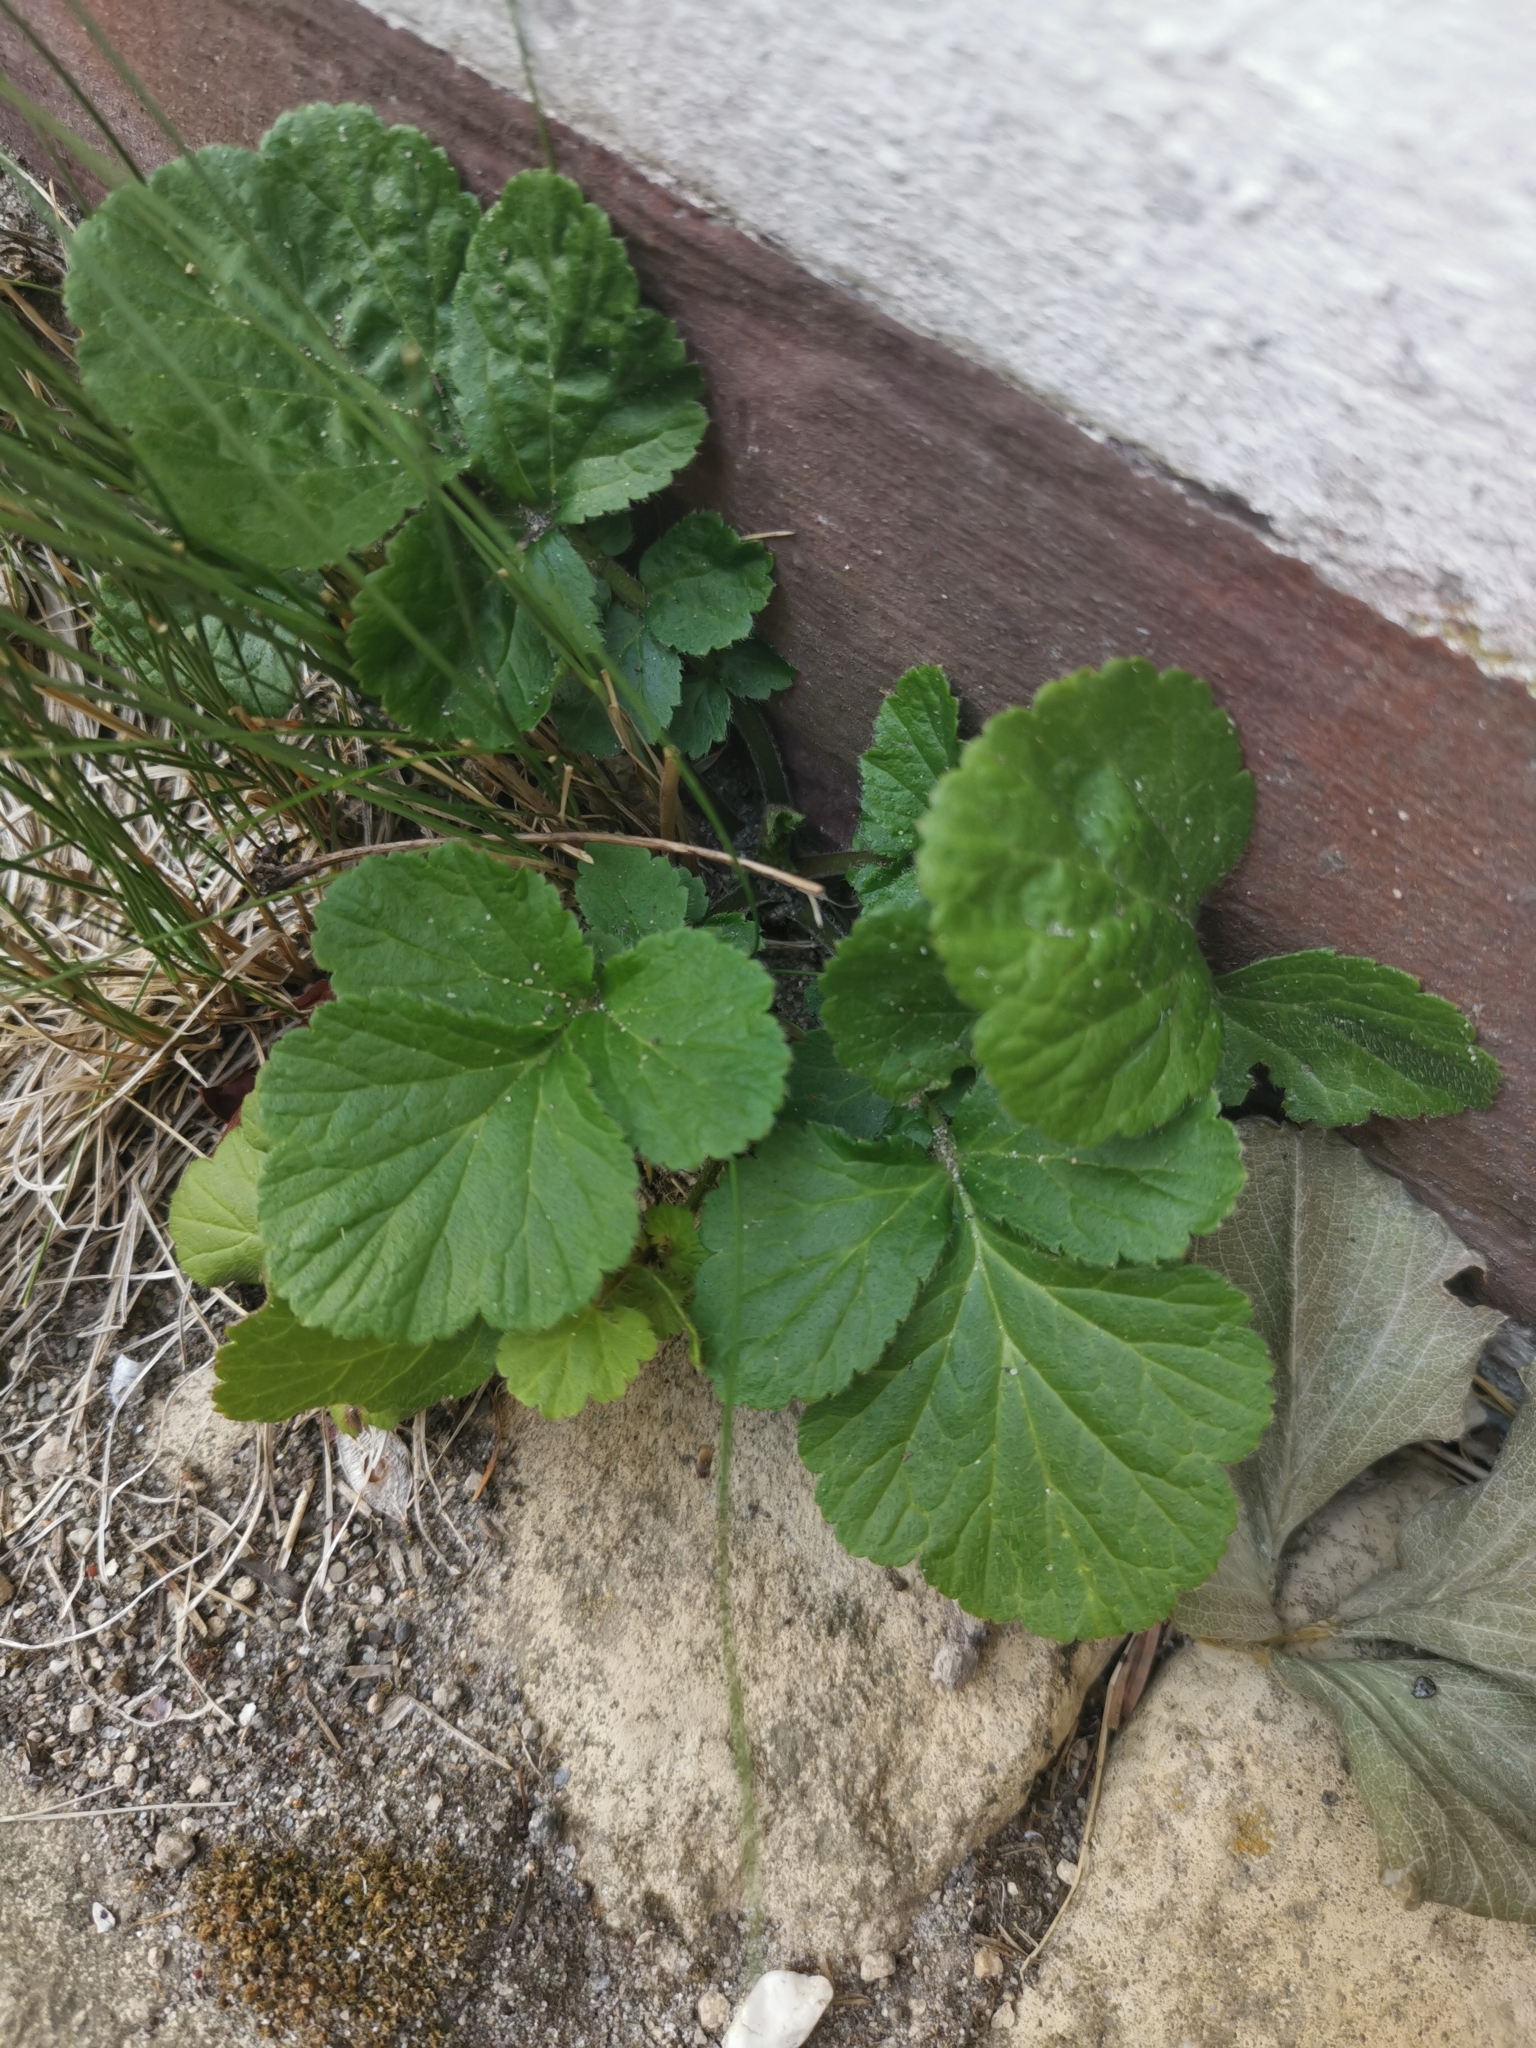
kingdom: Plantae
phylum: Tracheophyta
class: Magnoliopsida
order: Rosales
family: Rosaceae
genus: Geum
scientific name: Geum urbanum
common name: Wood avens
